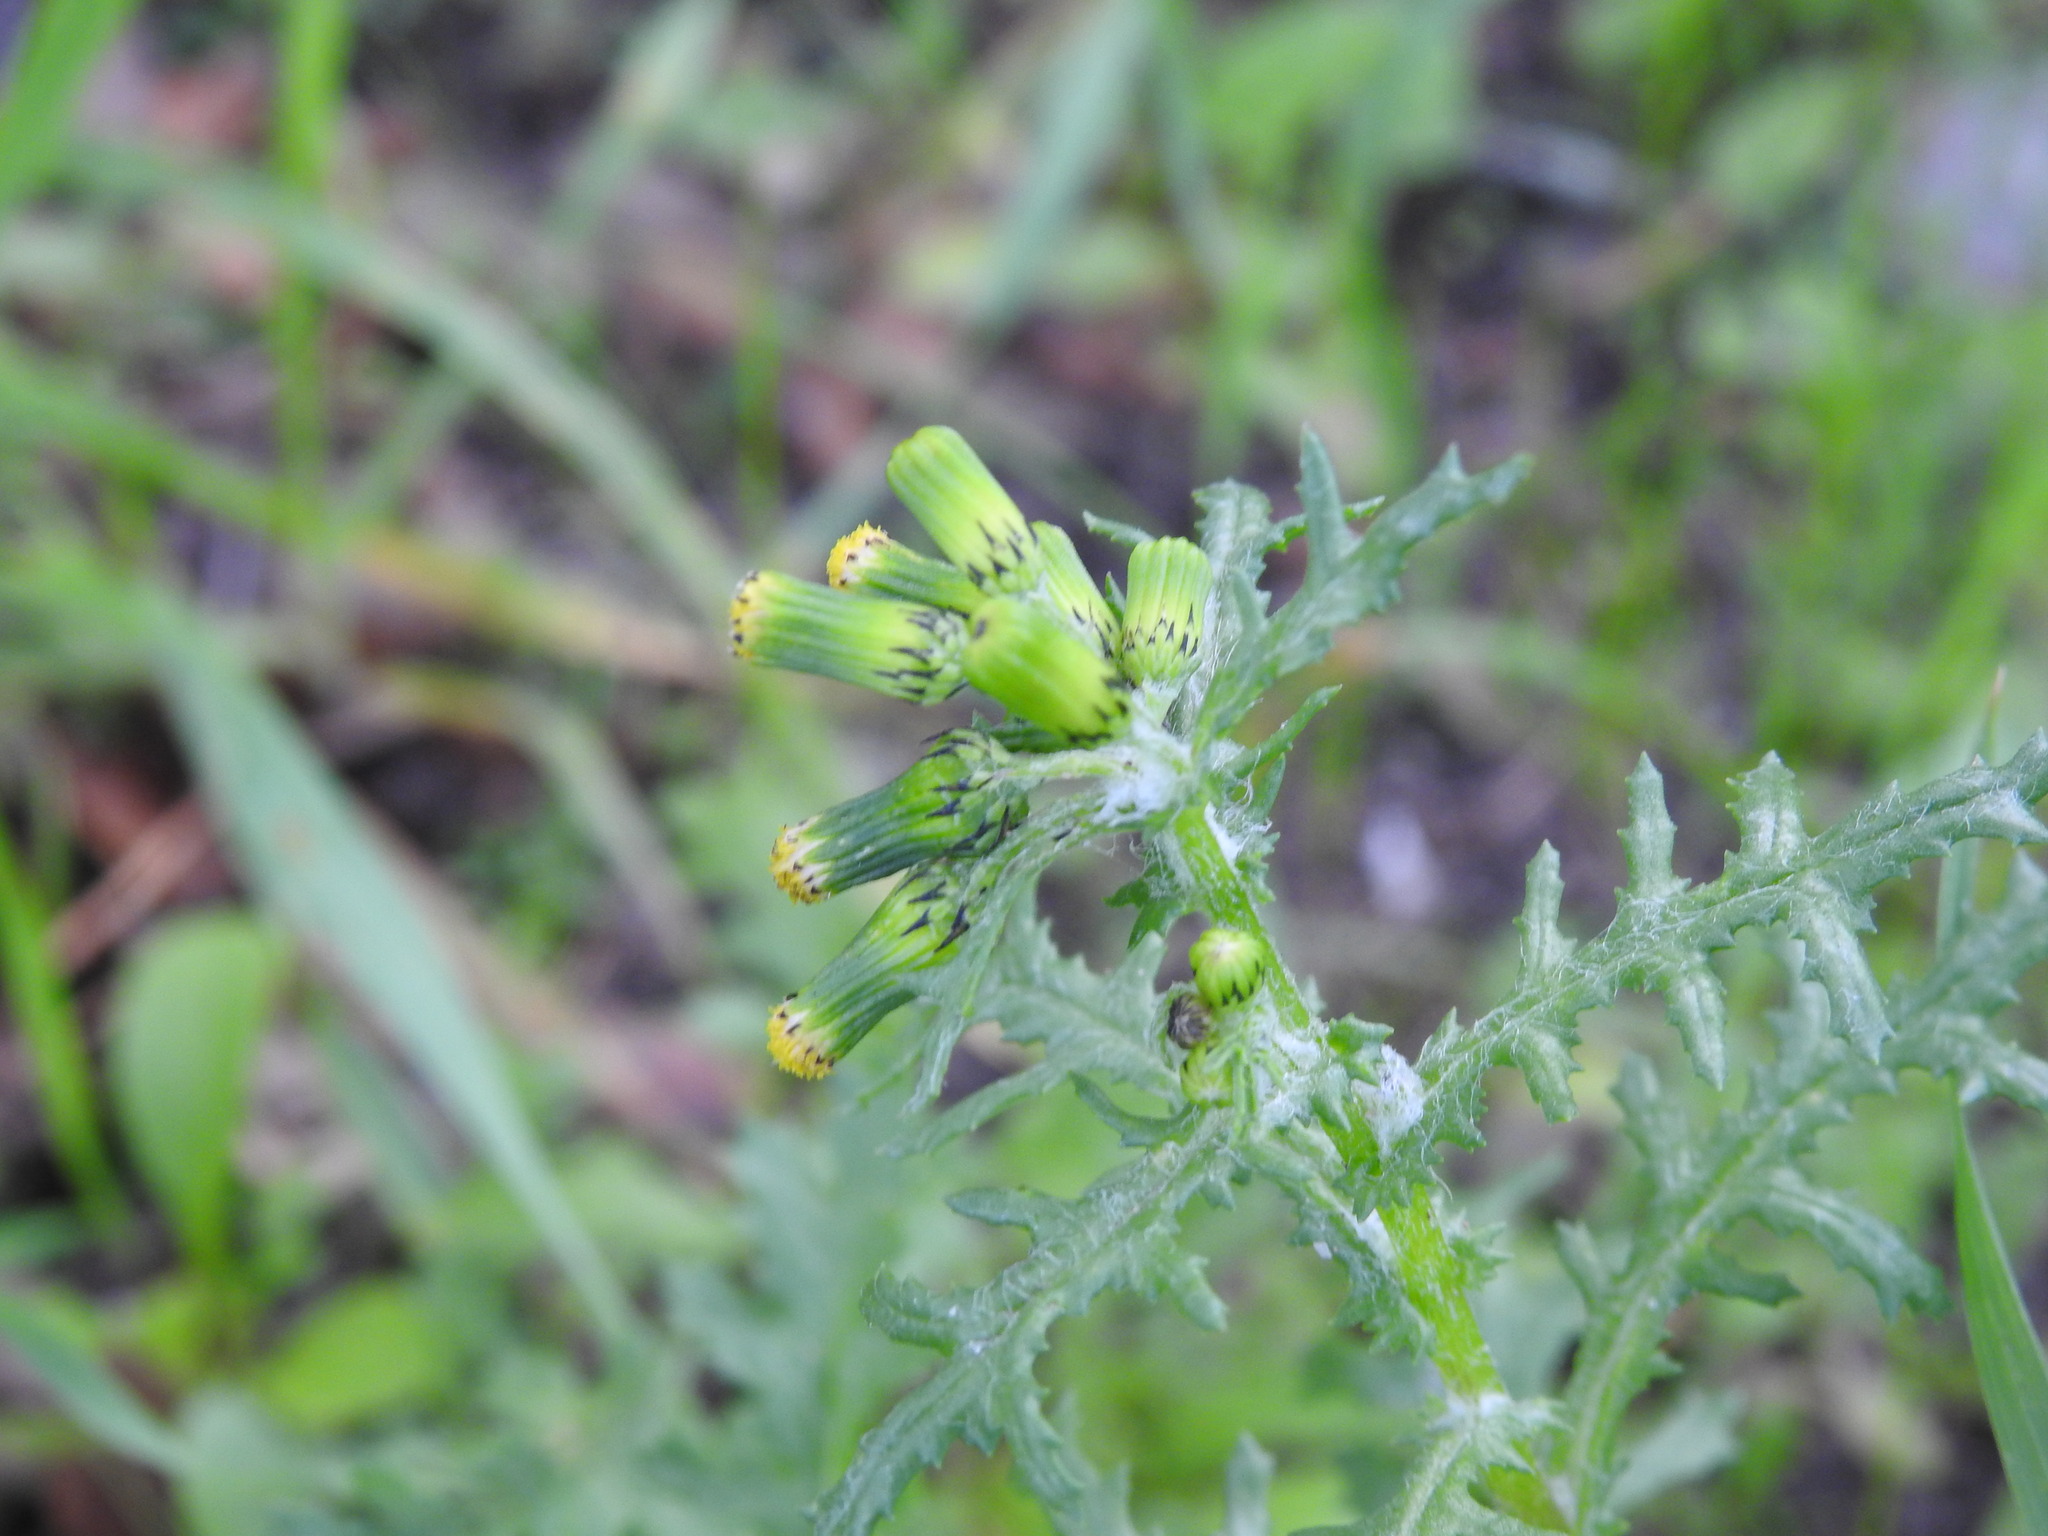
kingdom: Plantae
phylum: Tracheophyta
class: Magnoliopsida
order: Asterales
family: Asteraceae
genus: Senecio
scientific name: Senecio vulgaris
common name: Old-man-in-the-spring
